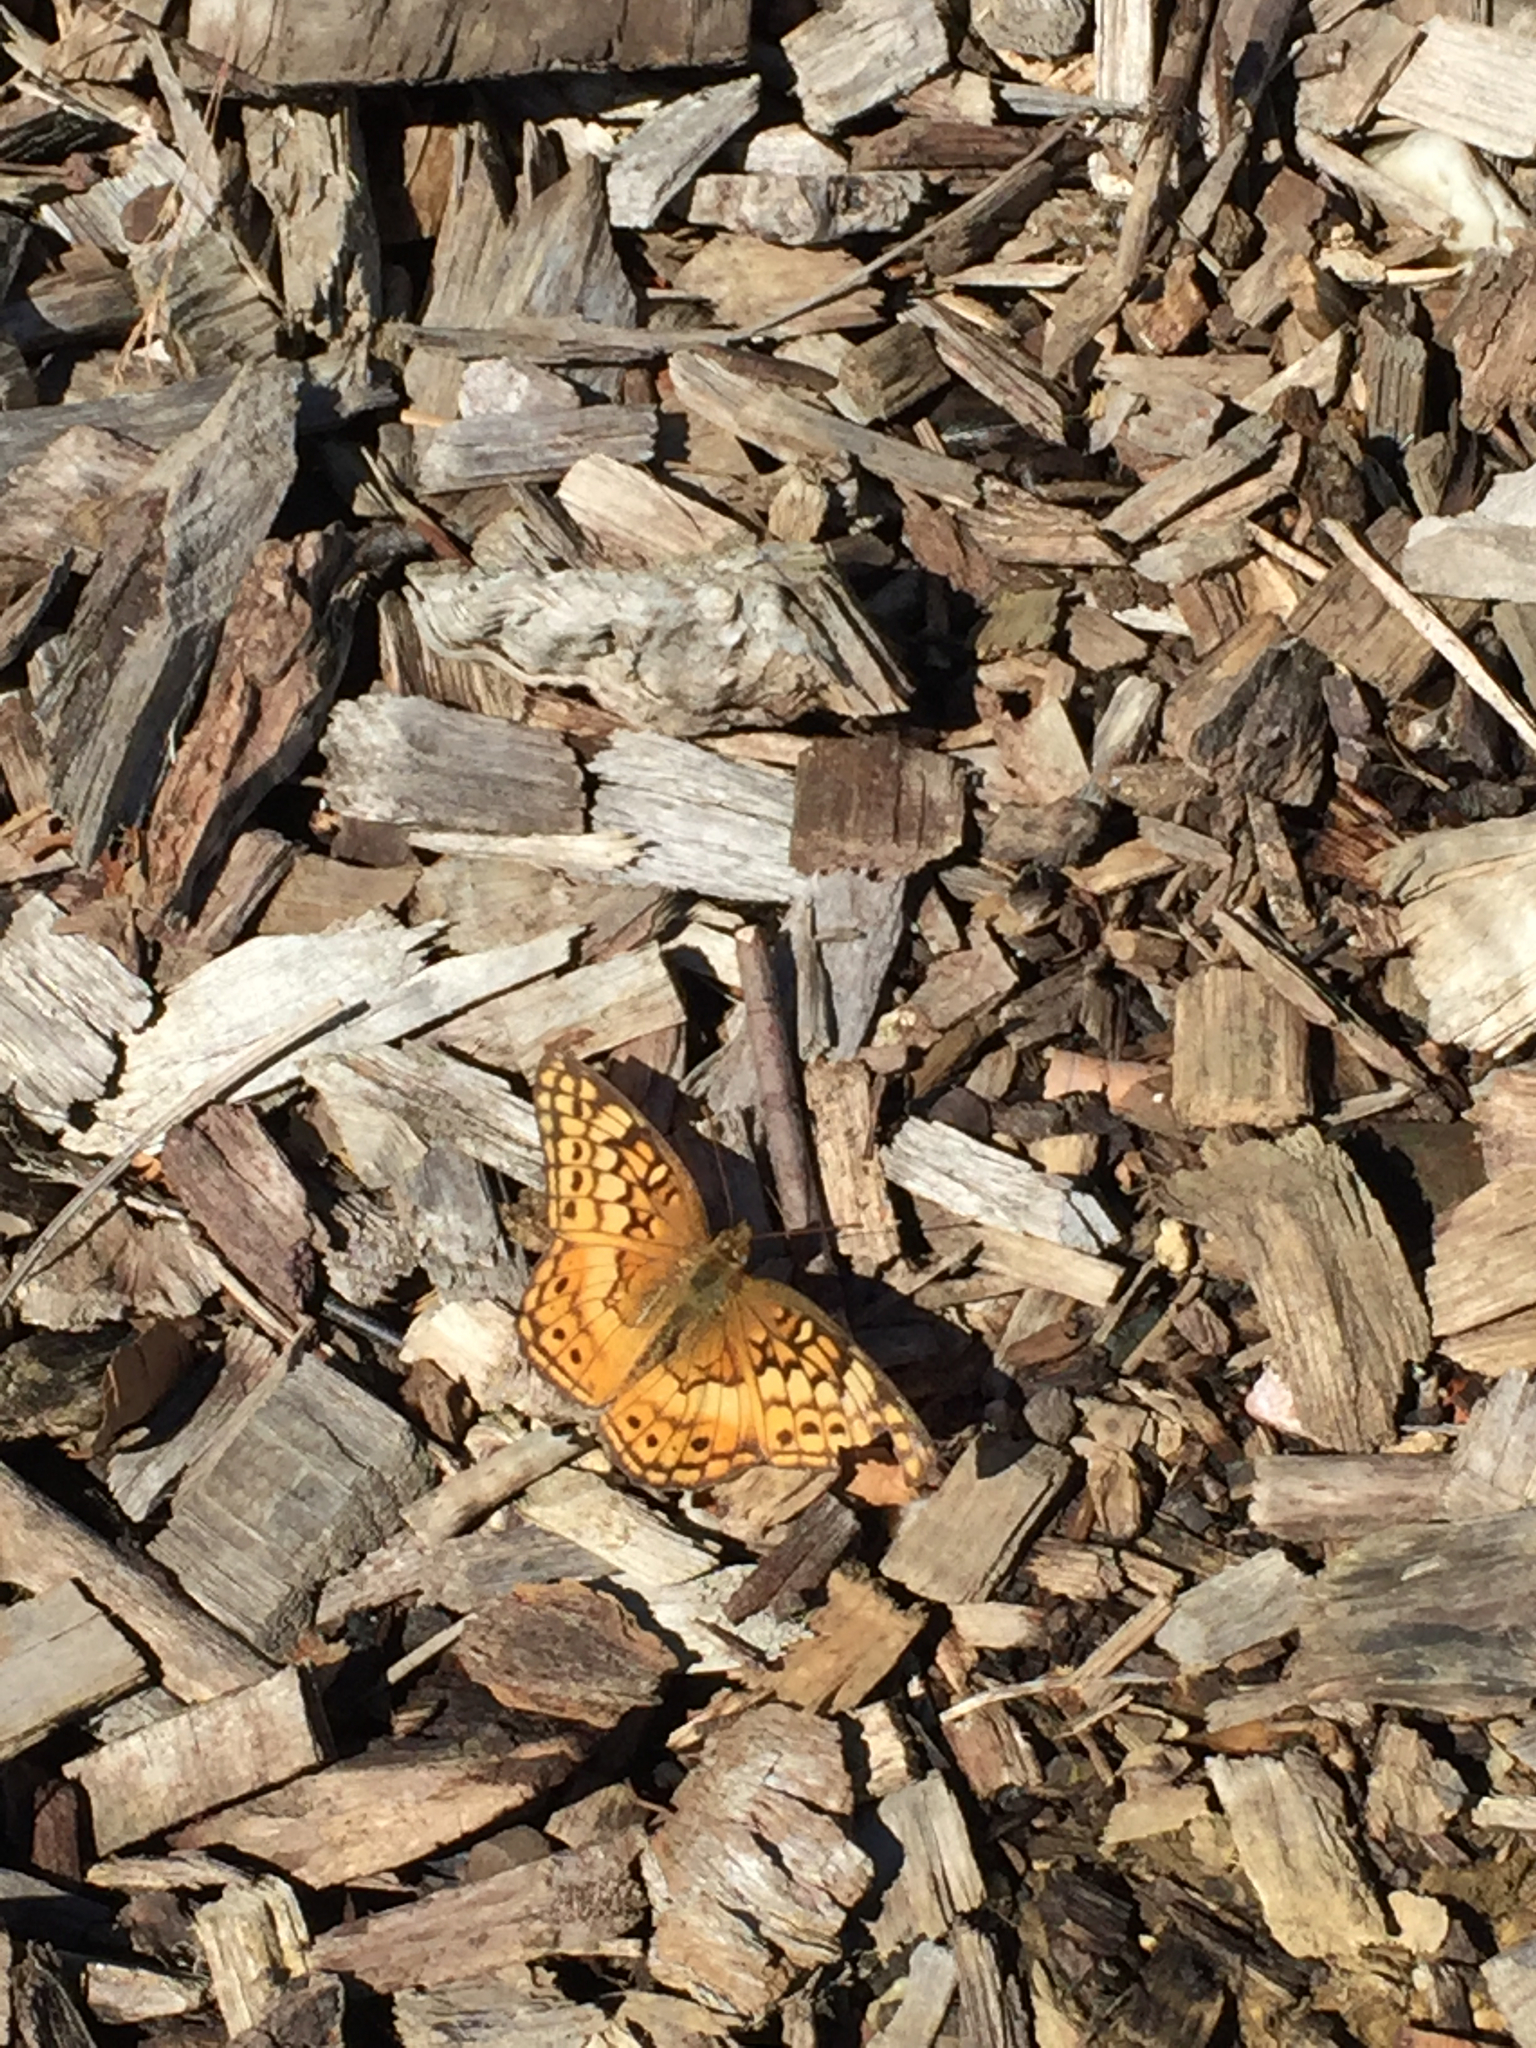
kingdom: Animalia
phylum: Arthropoda
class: Insecta
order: Lepidoptera
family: Nymphalidae
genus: Euptoieta
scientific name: Euptoieta claudia
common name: Variegated fritillary
